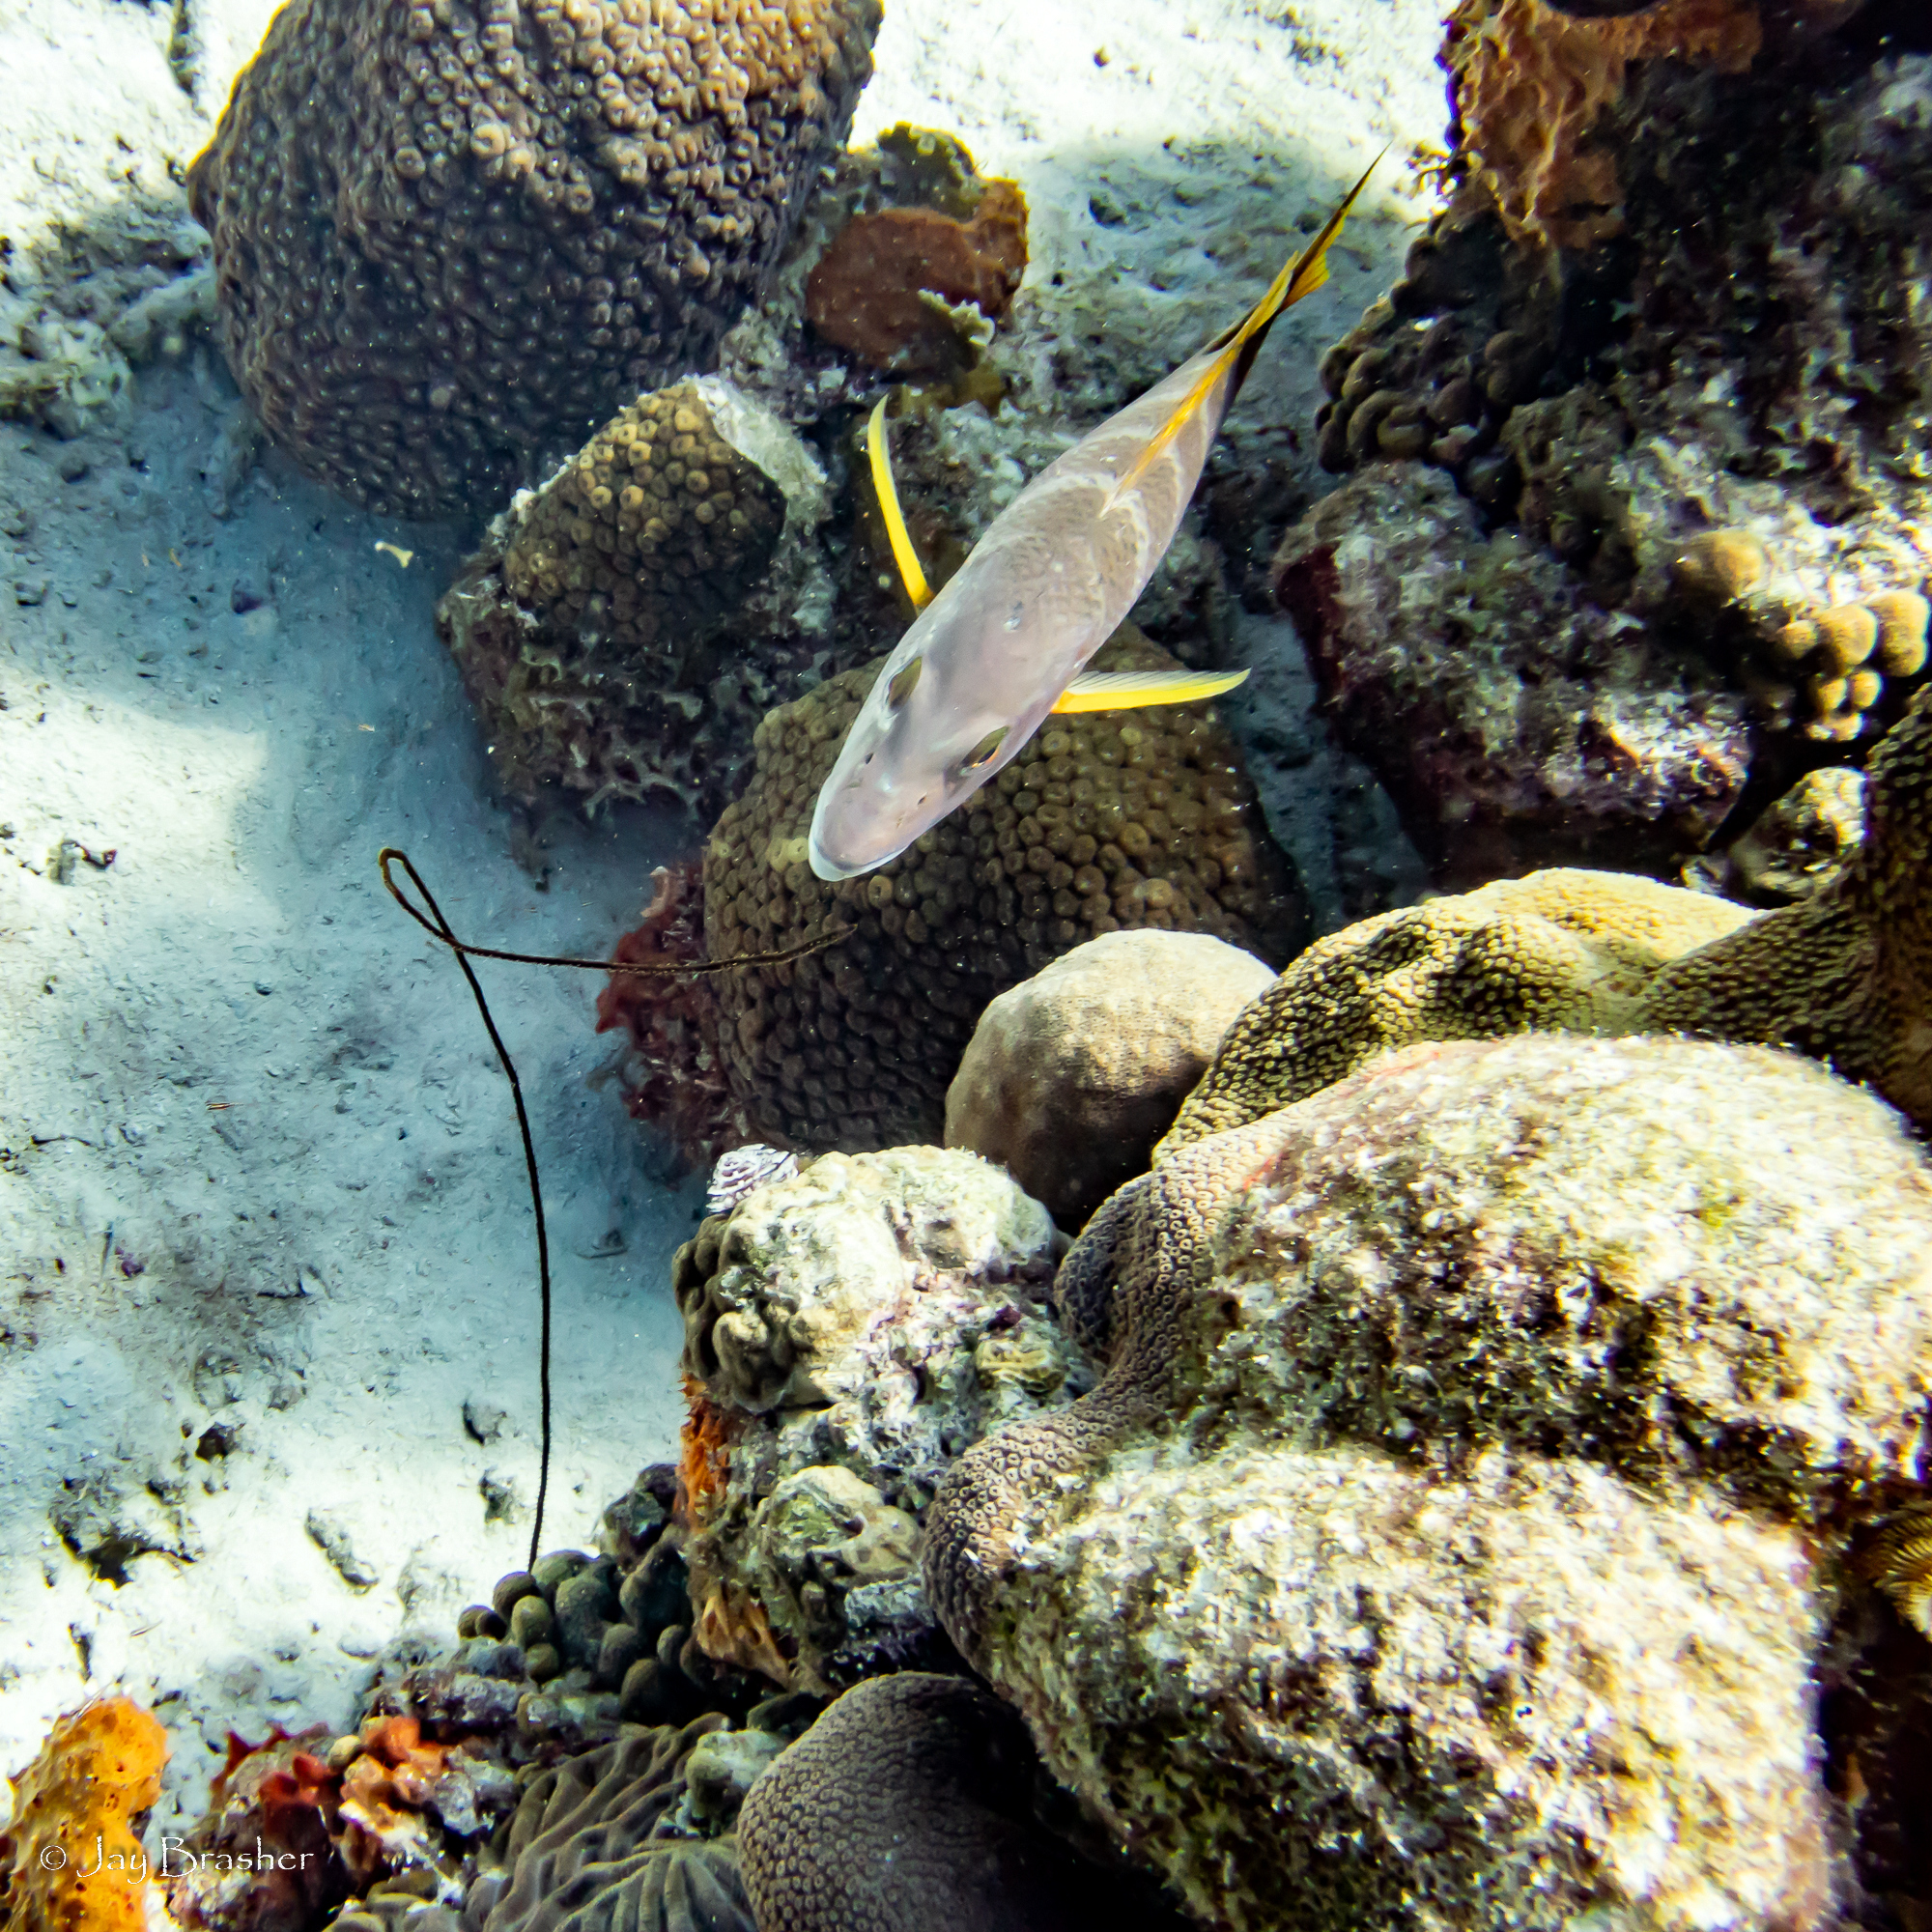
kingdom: Animalia
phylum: Cnidaria
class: Anthozoa
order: Antipatharia
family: Antipathidae
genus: Stichopathes
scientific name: Stichopathes luetkeni
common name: Black wire coral
